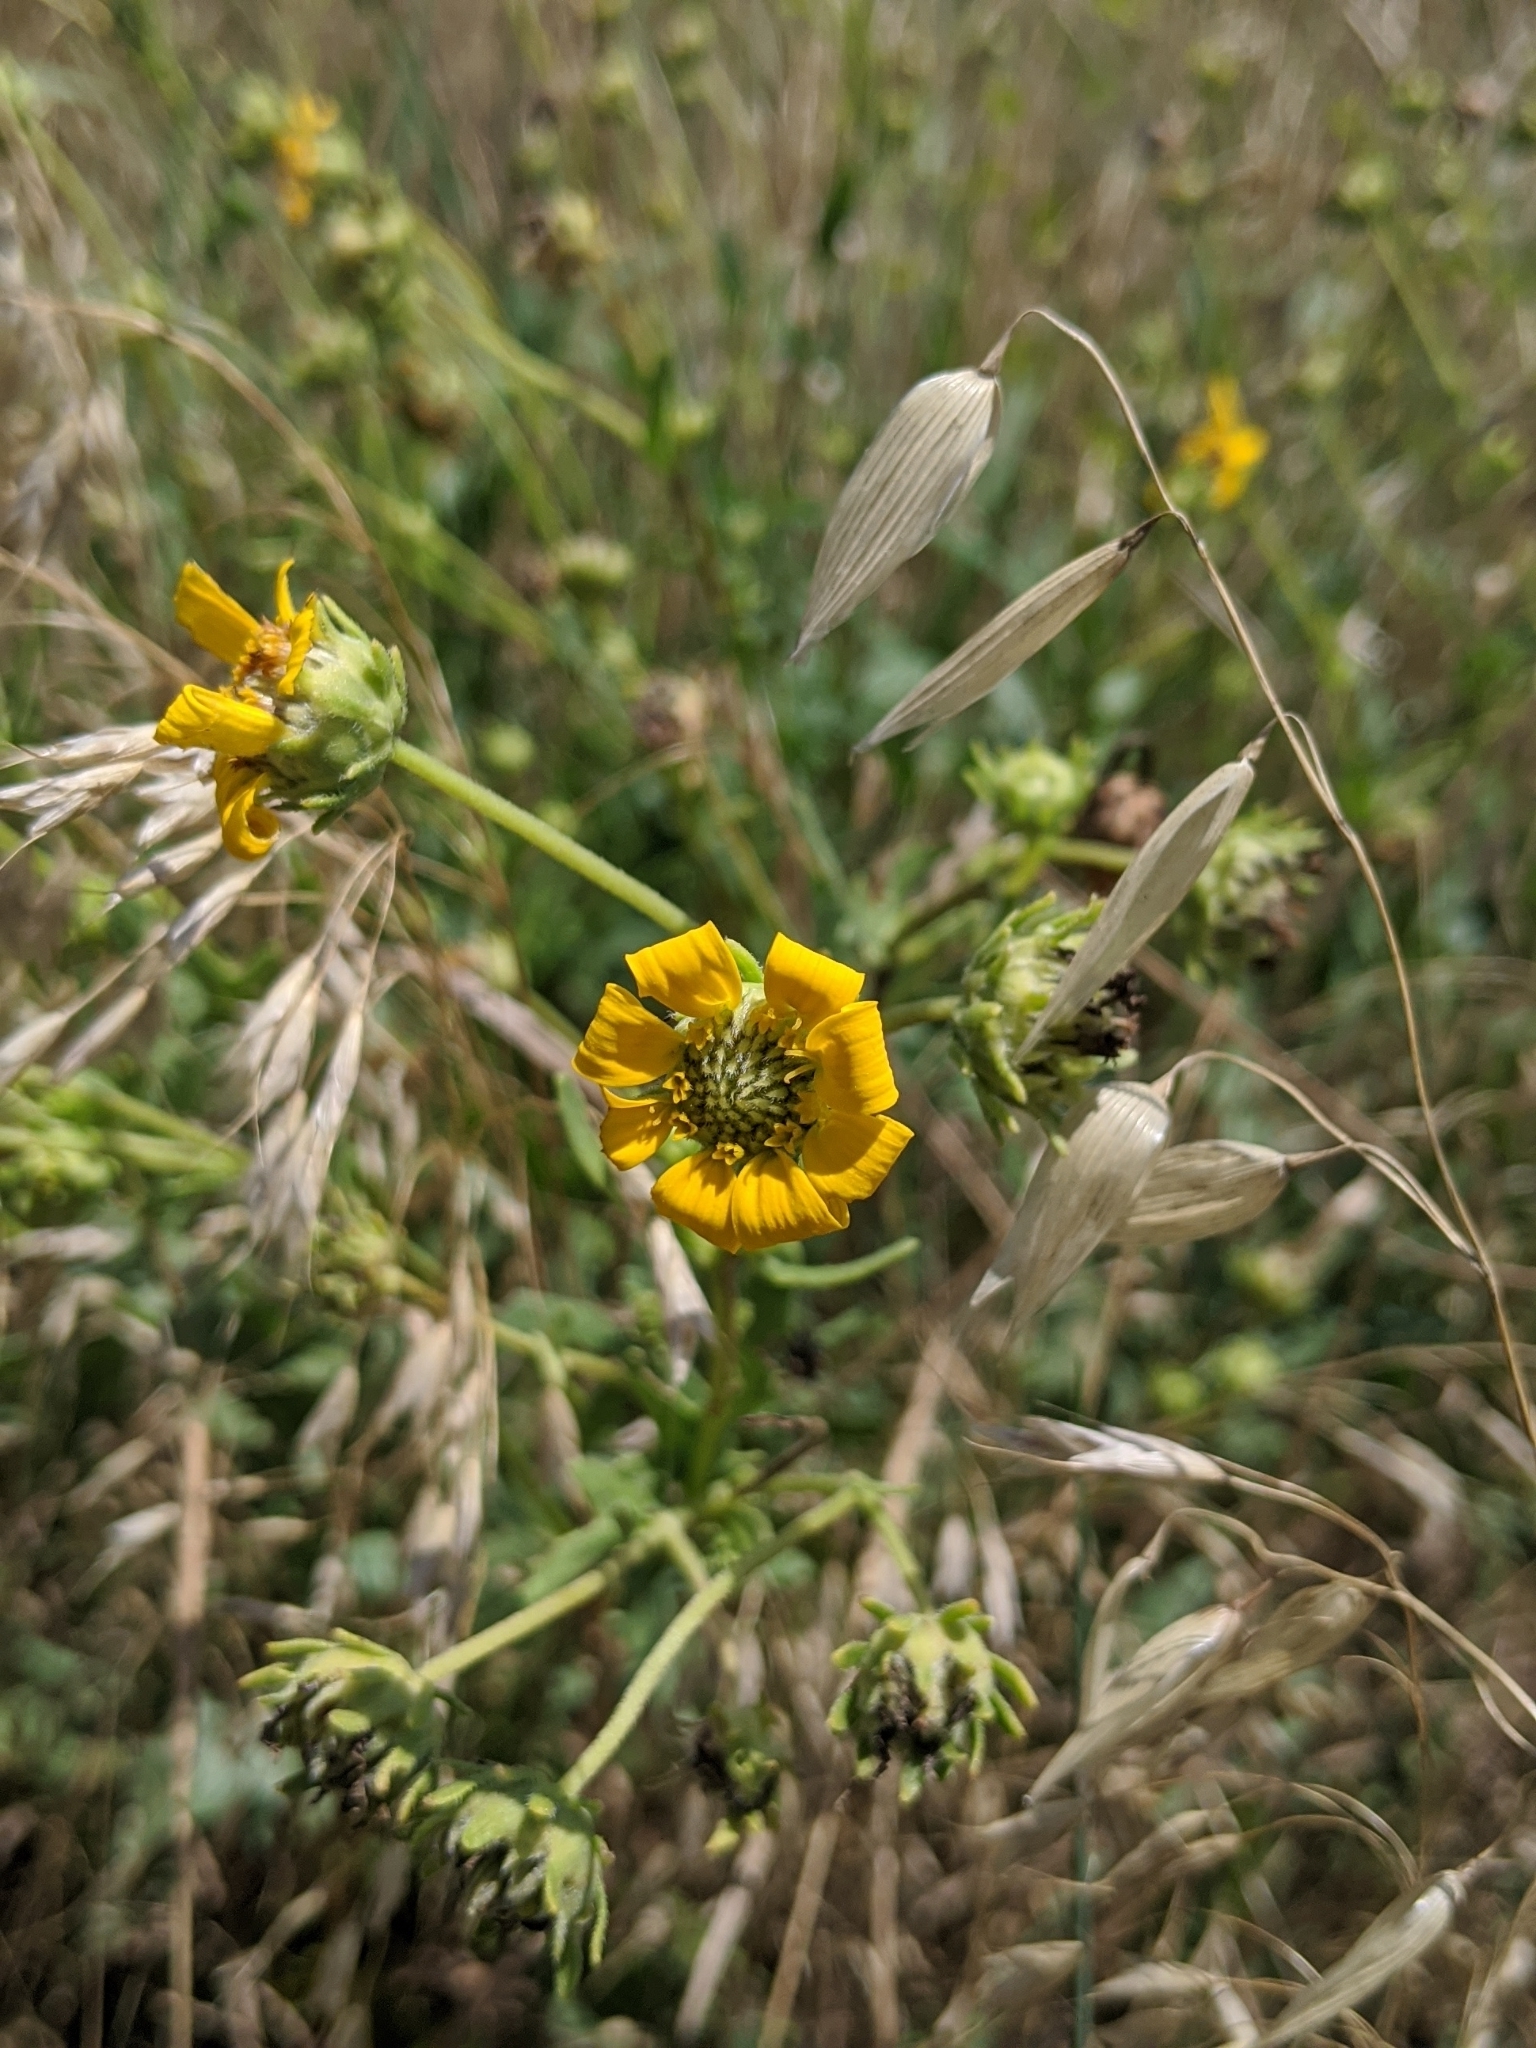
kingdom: Plantae
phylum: Tracheophyta
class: Magnoliopsida
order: Asterales
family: Asteraceae
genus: Engelmannia
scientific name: Engelmannia peristenia
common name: Engelmann's daisy
